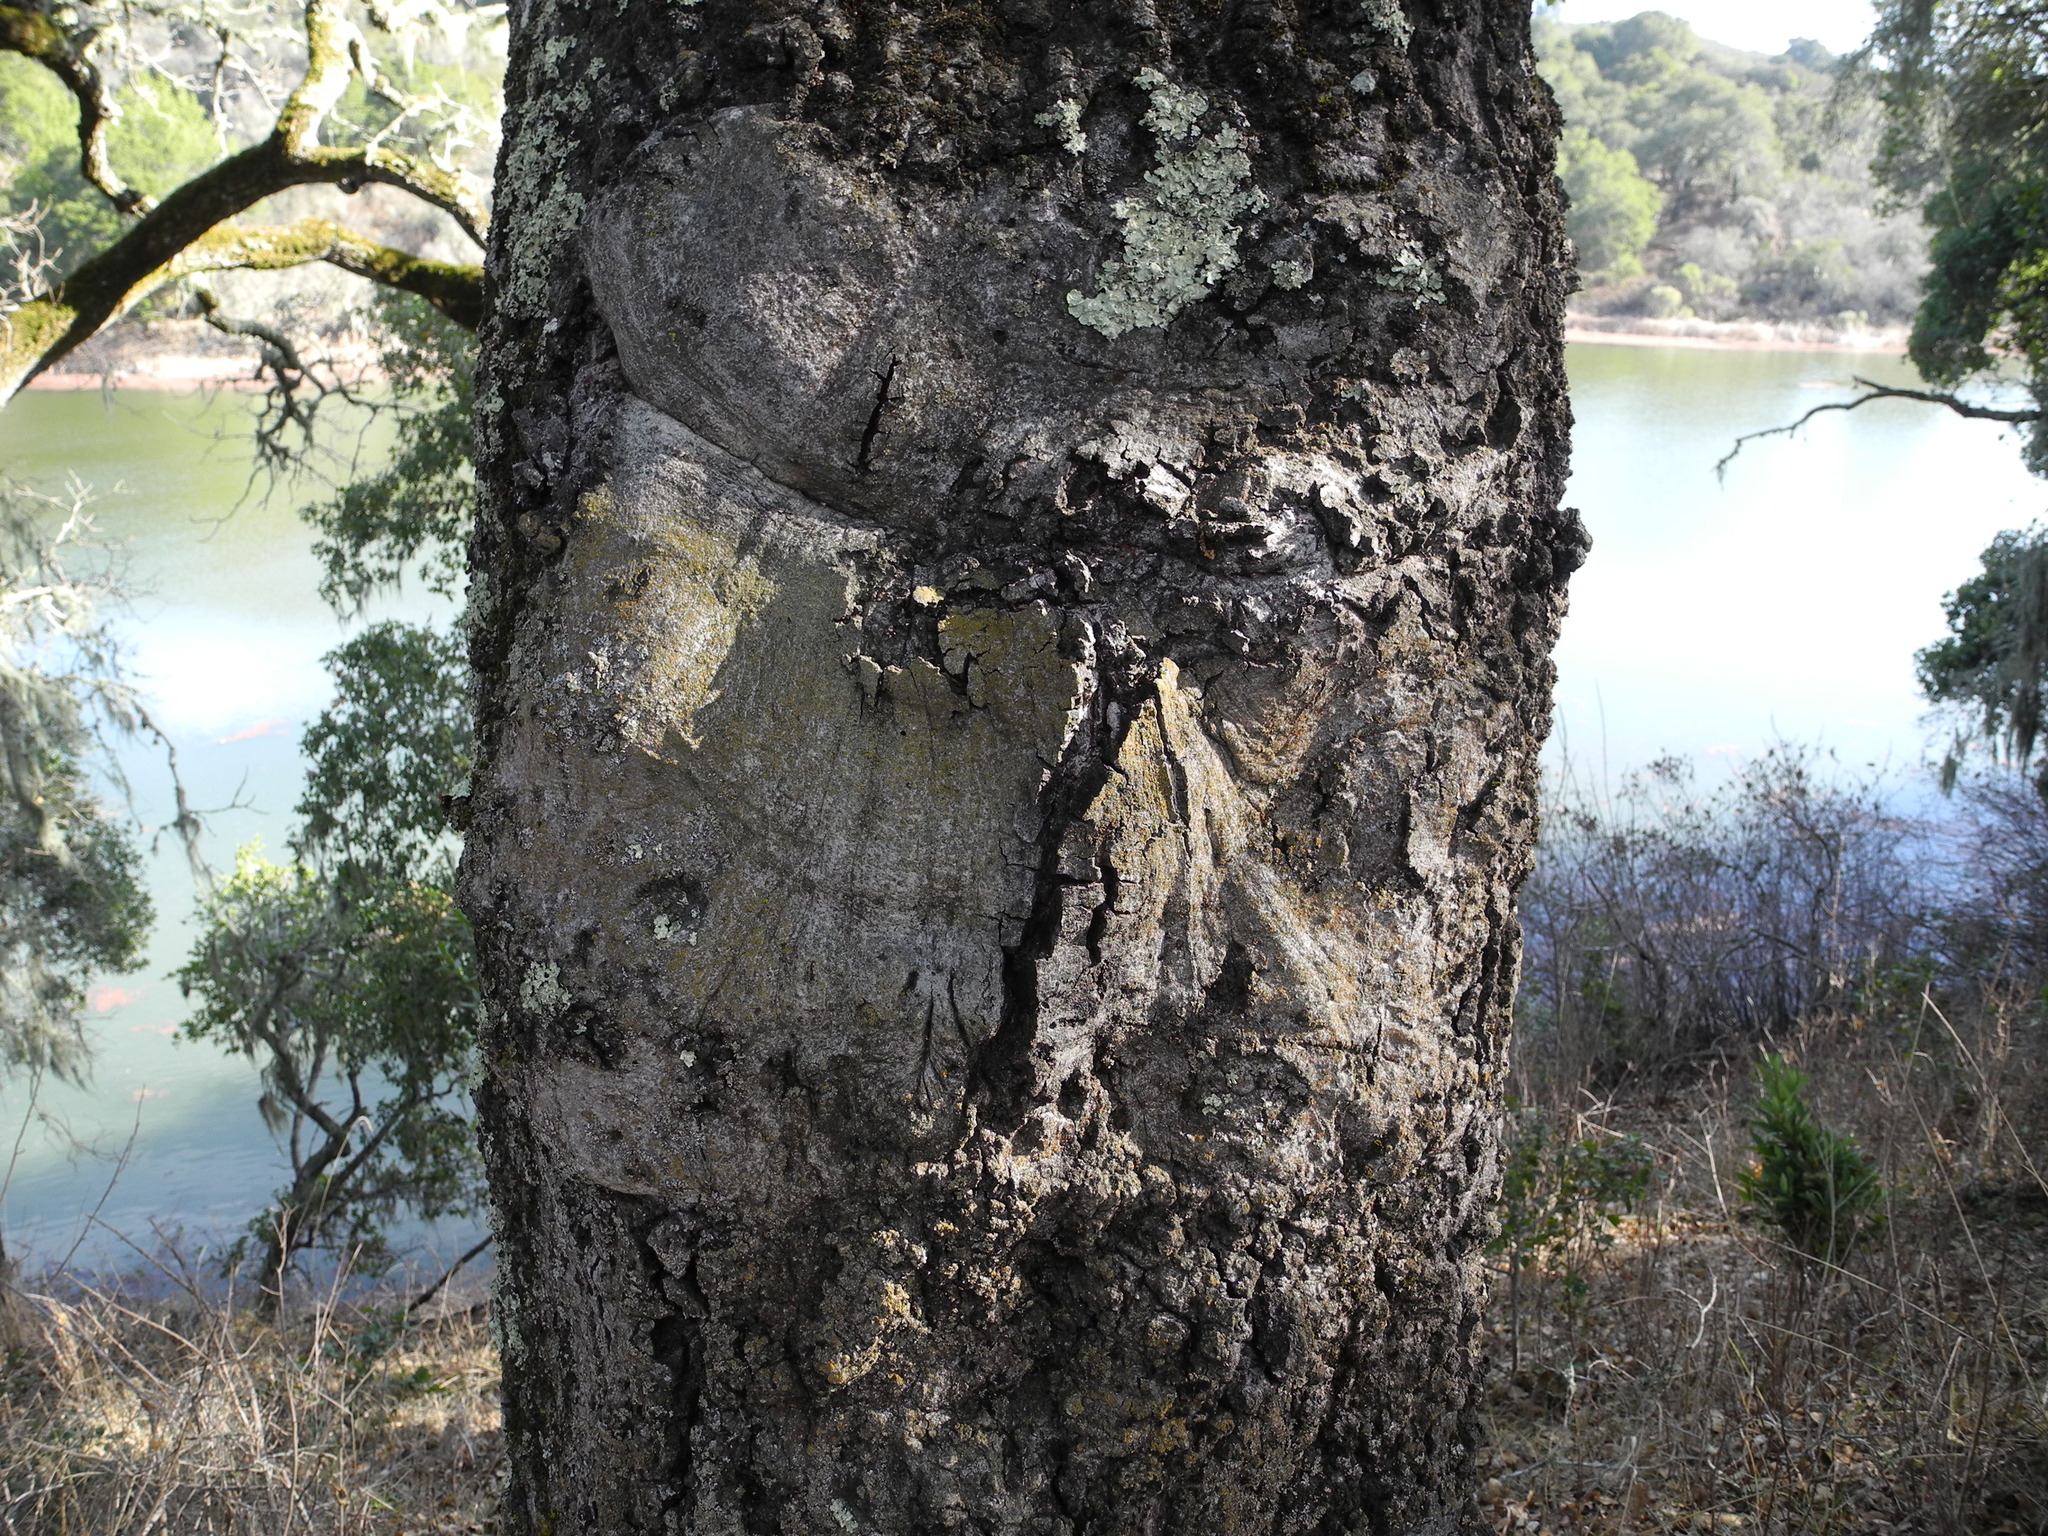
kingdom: Plantae
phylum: Tracheophyta
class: Magnoliopsida
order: Fagales
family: Fagaceae
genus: Quercus
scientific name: Quercus agrifolia
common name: California live oak
